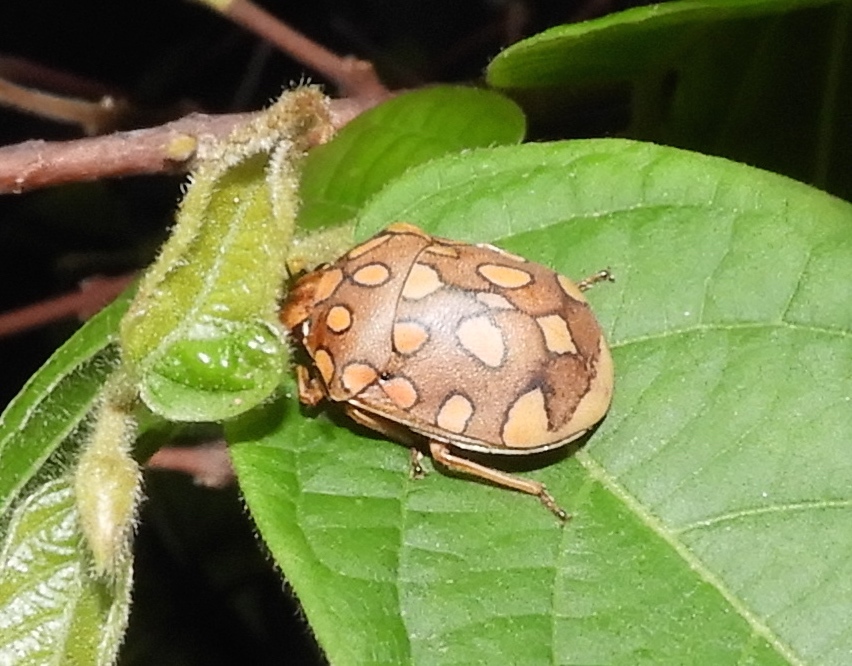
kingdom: Animalia
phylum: Arthropoda
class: Insecta
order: Hemiptera
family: Scutelleridae
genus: Pachycoris
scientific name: Pachycoris torridus
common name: Torrid jewel bug
